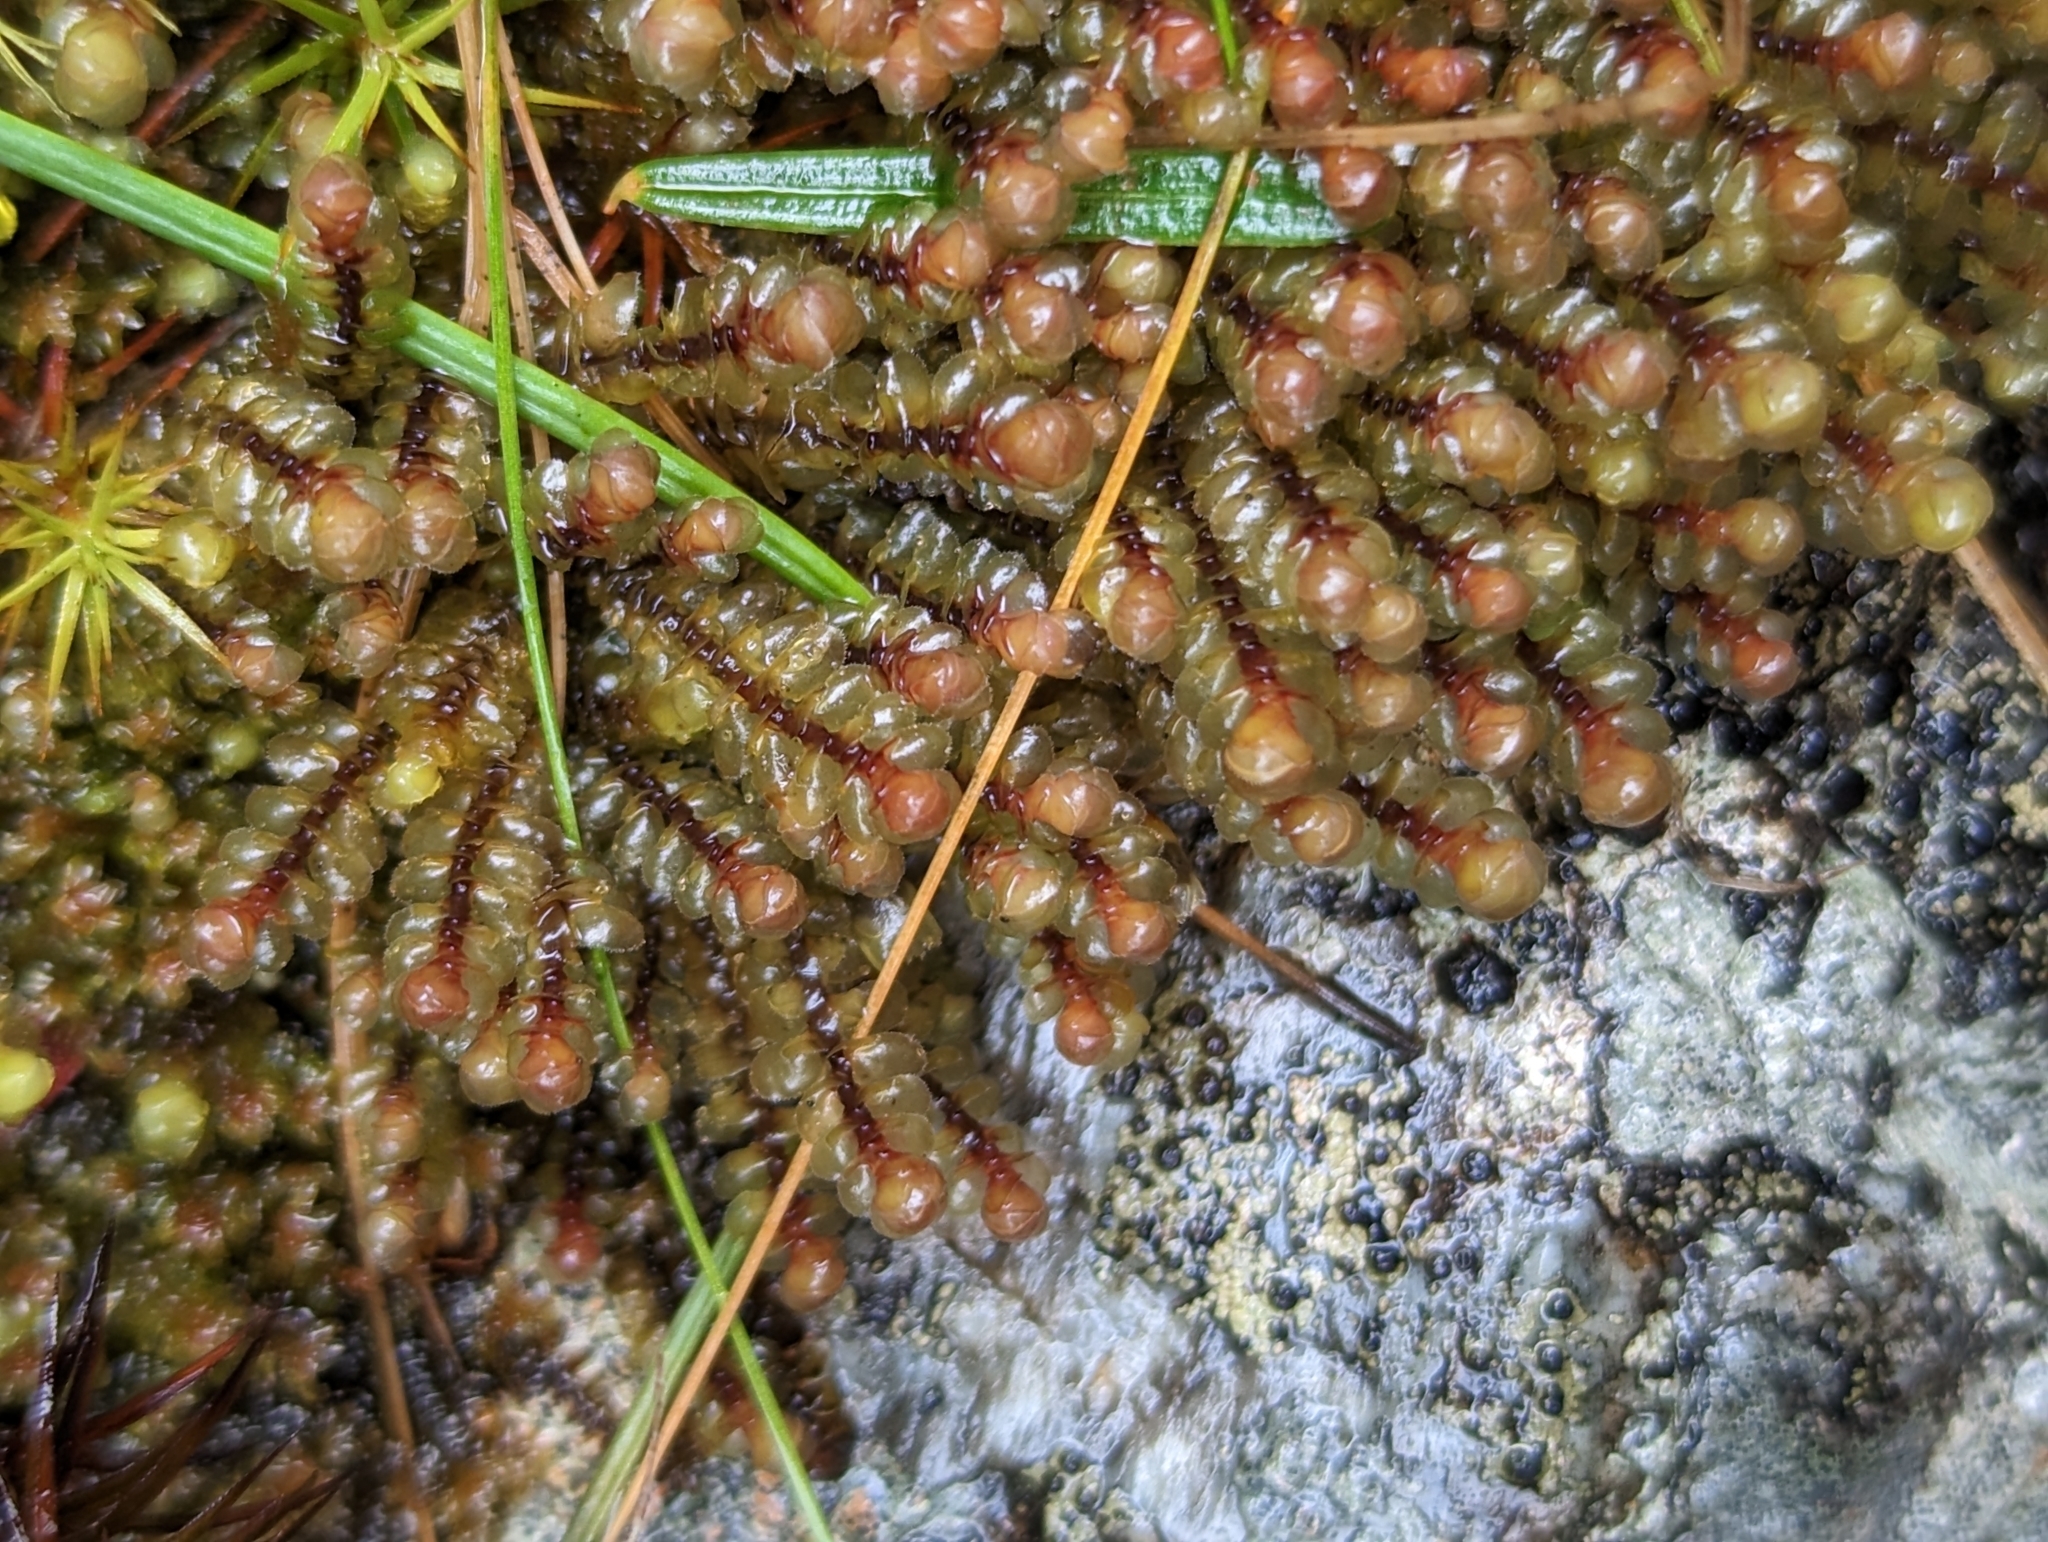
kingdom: Plantae
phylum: Marchantiophyta
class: Jungermanniopsida
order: Jungermanniales
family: Scapaniaceae
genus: Scapania
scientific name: Scapania americana
